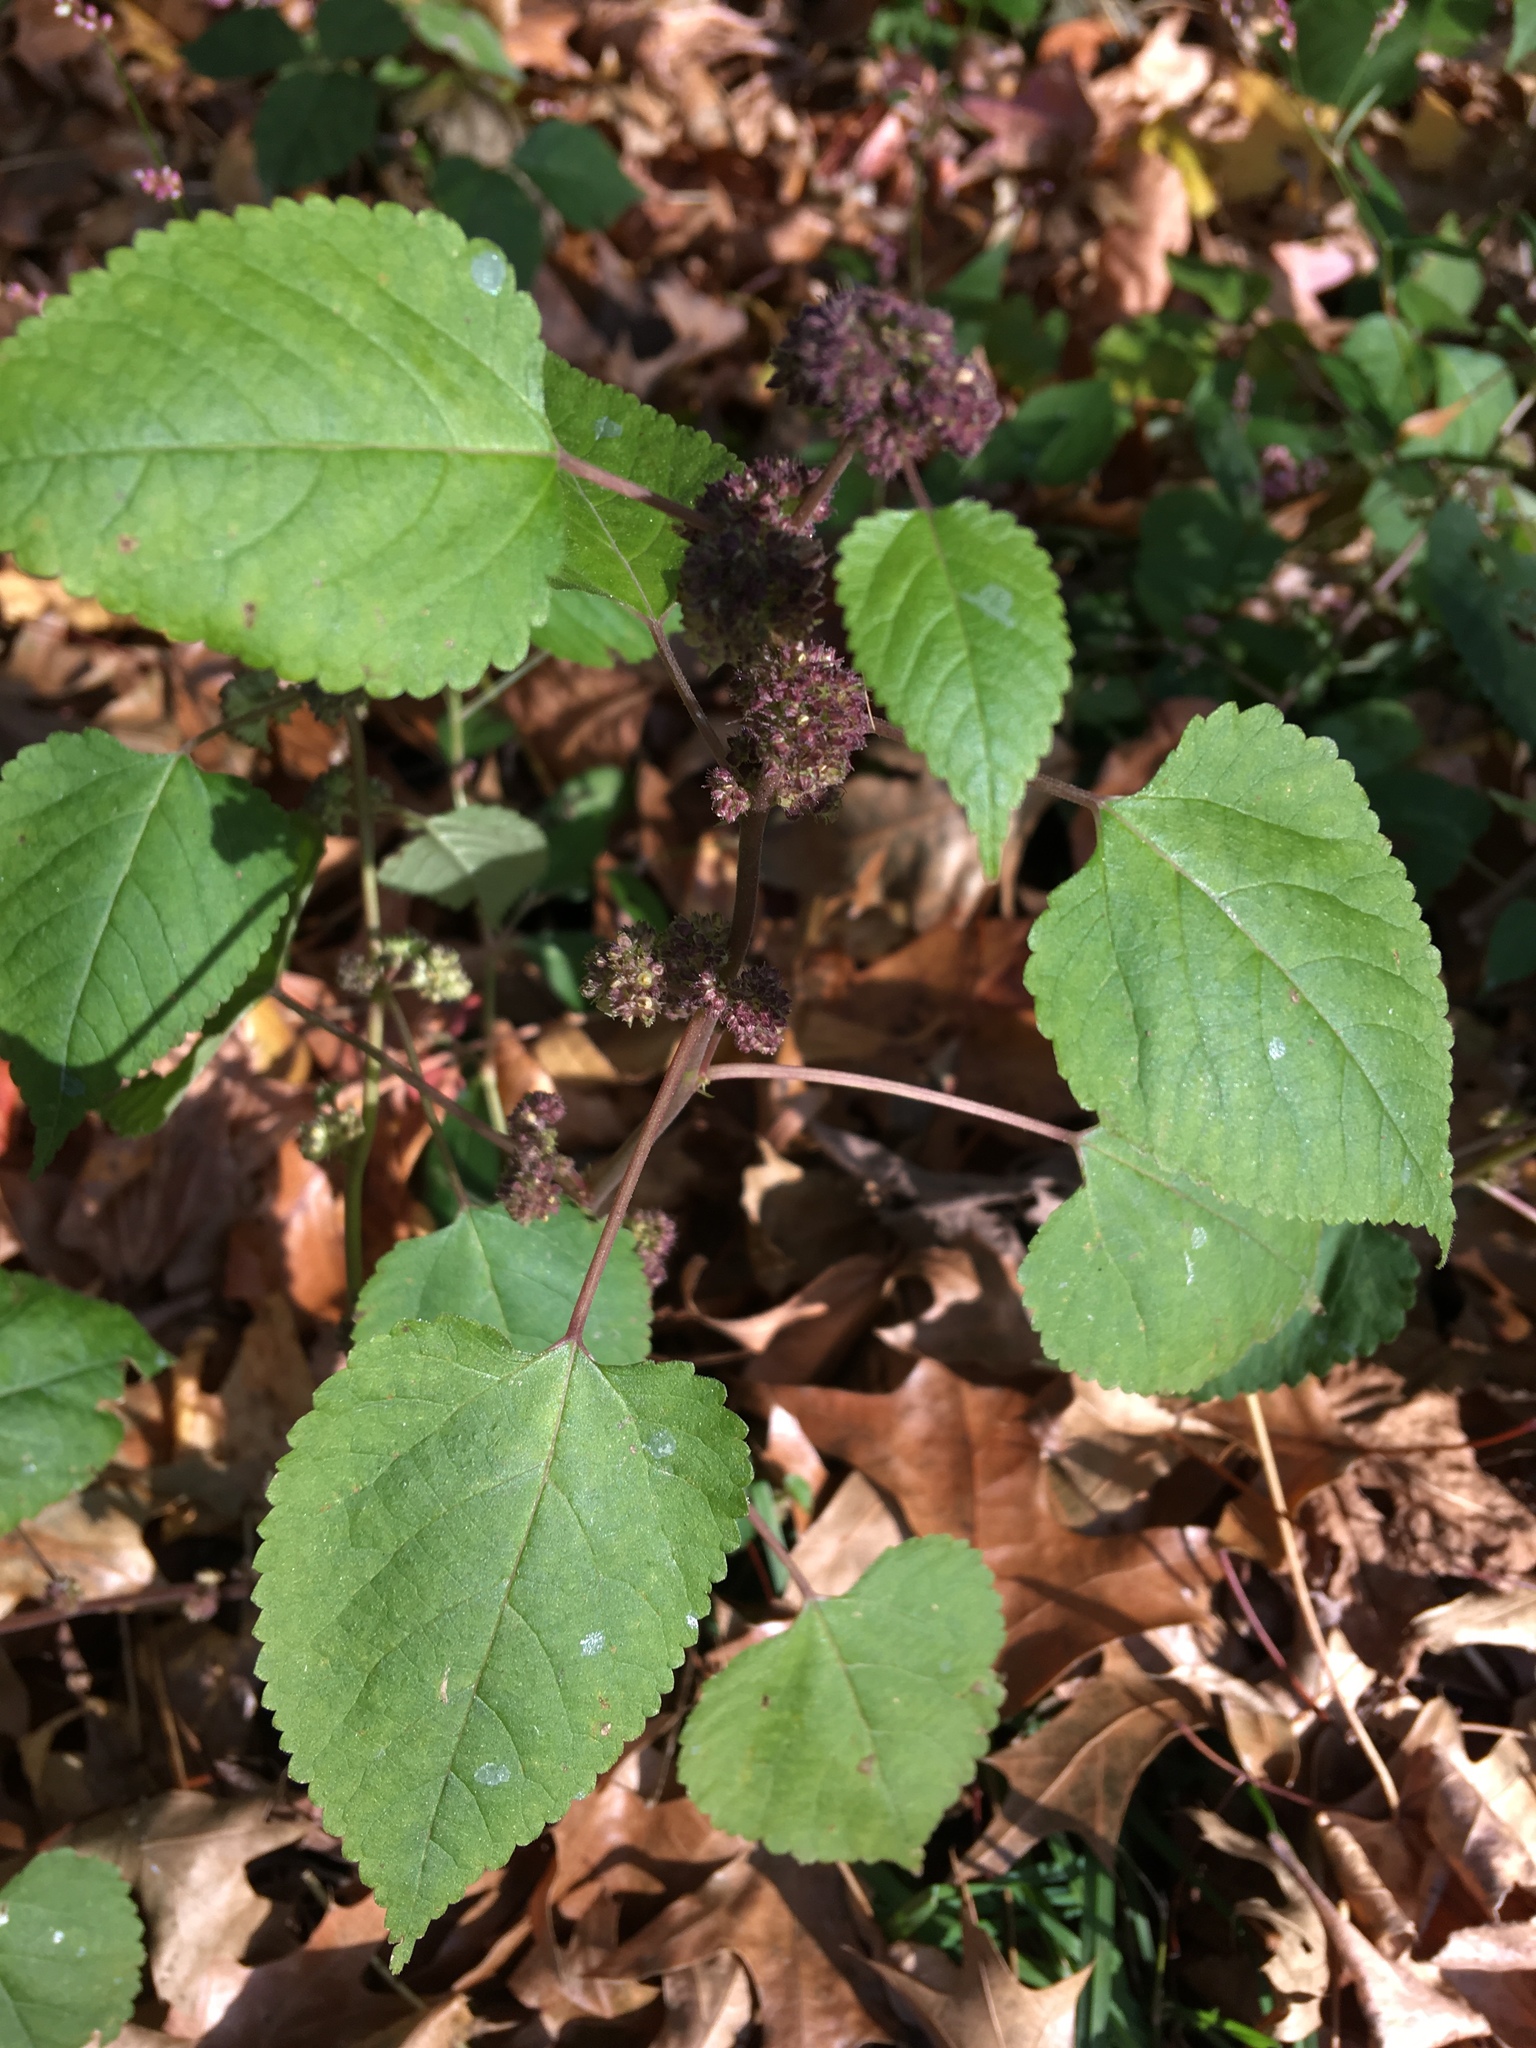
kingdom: Plantae
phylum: Tracheophyta
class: Magnoliopsida
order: Rosales
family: Moraceae
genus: Fatoua
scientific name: Fatoua villosa
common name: Hairy crabweed
